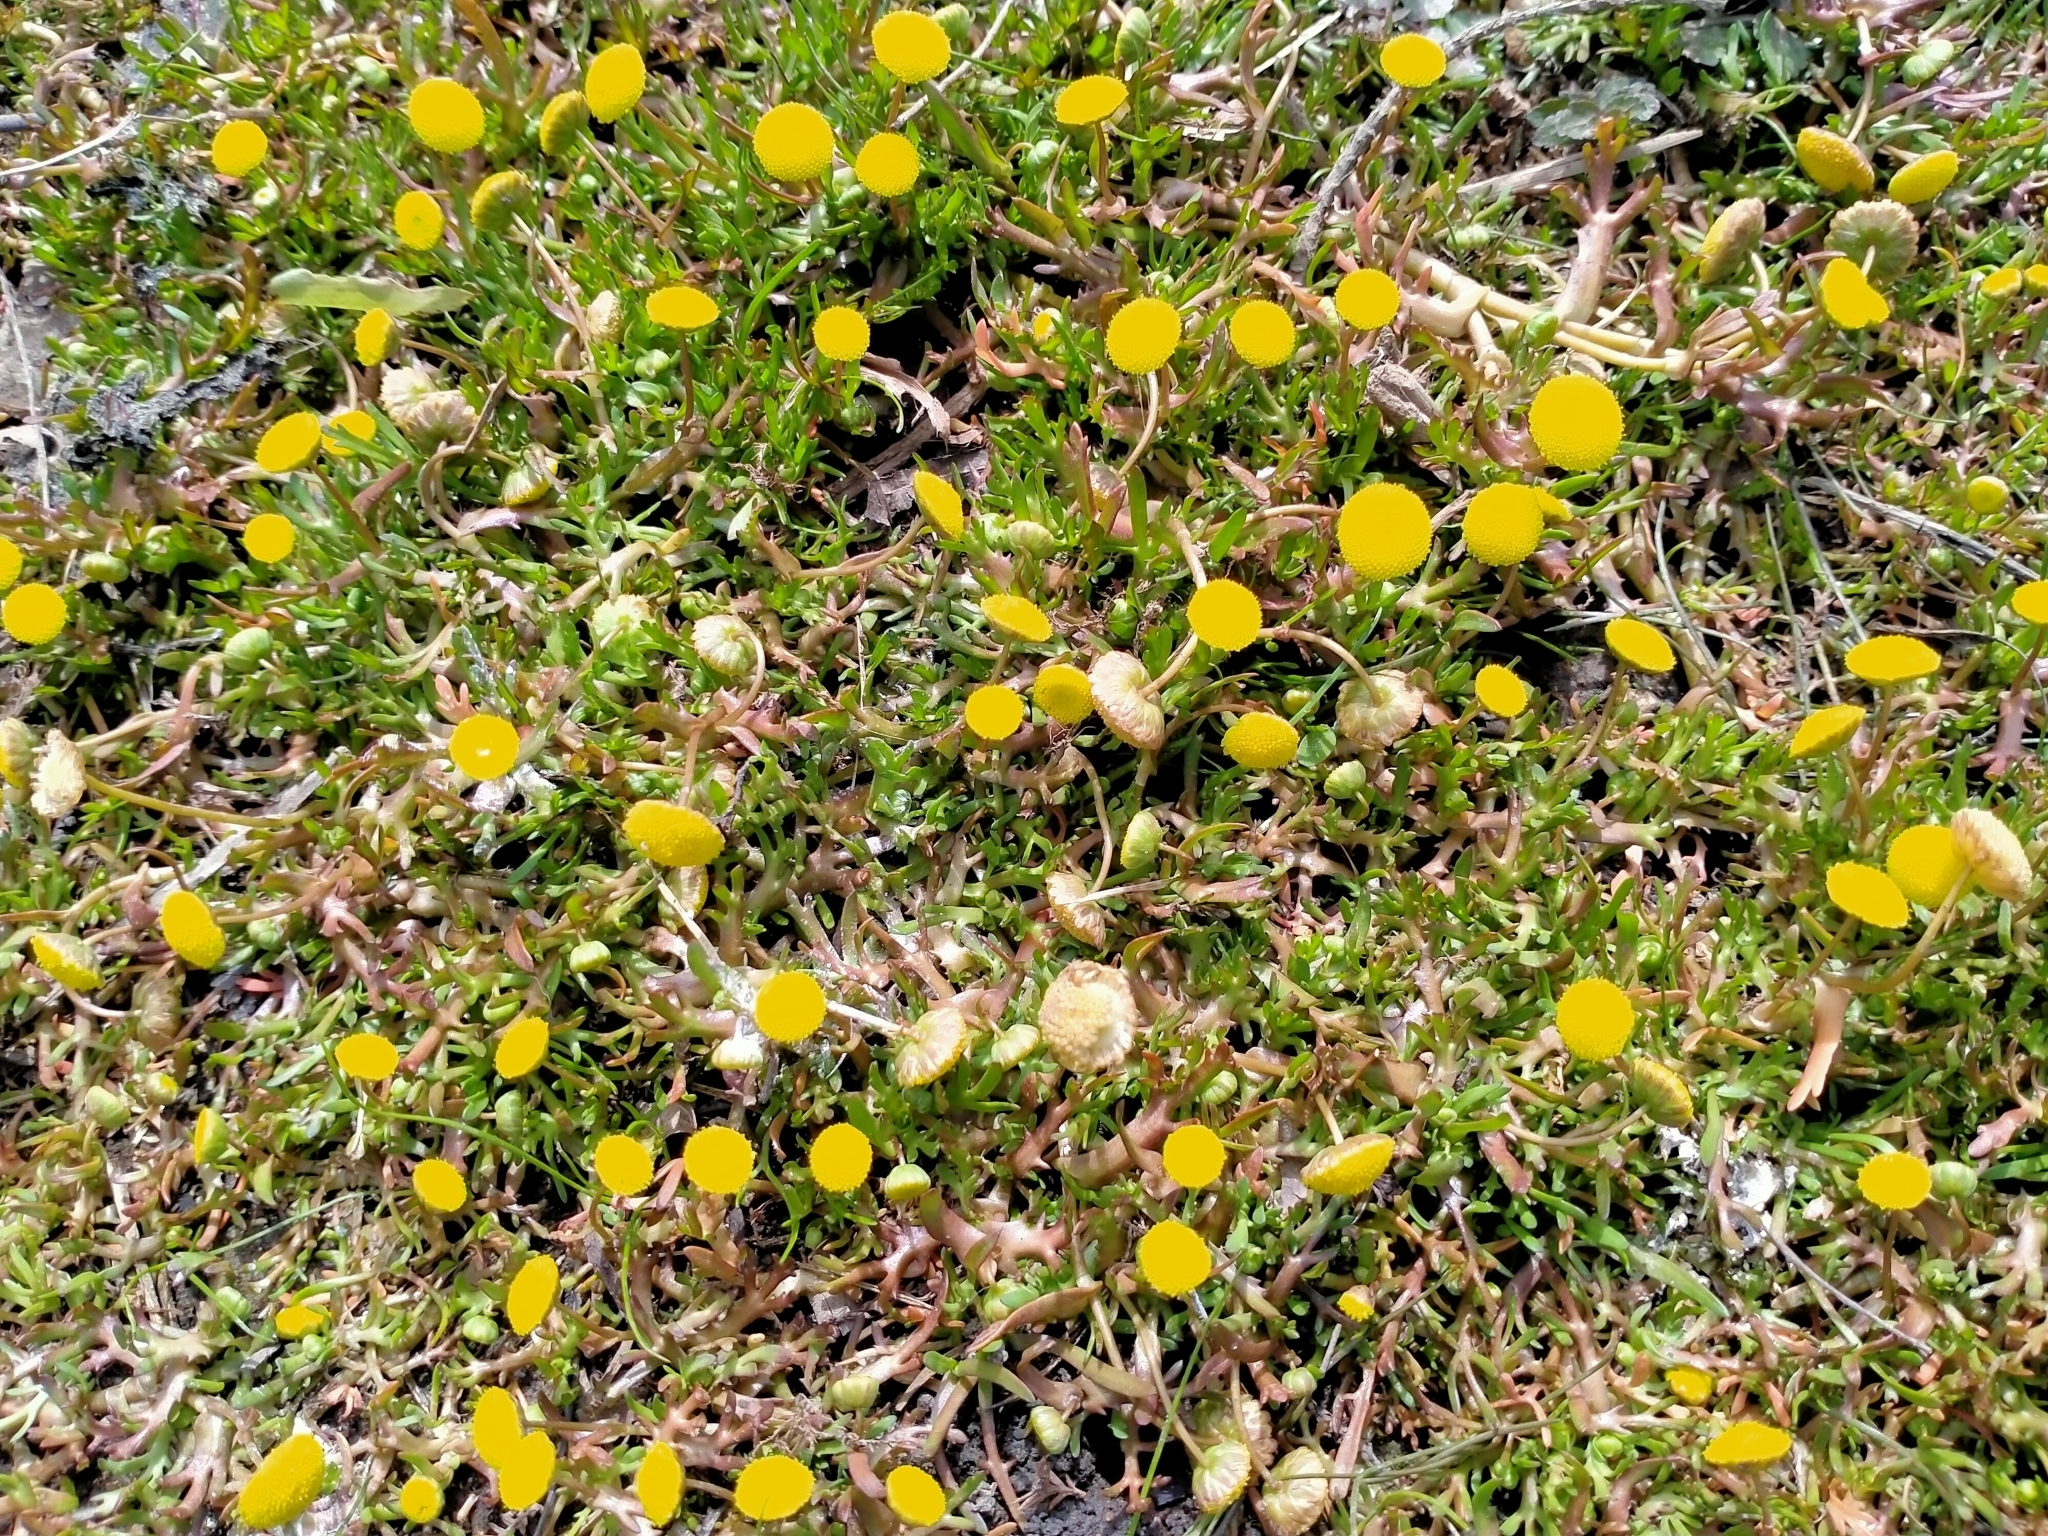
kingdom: Plantae
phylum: Tracheophyta
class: Magnoliopsida
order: Asterales
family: Asteraceae
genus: Cotula
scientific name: Cotula coronopifolia
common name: Buttonweed
